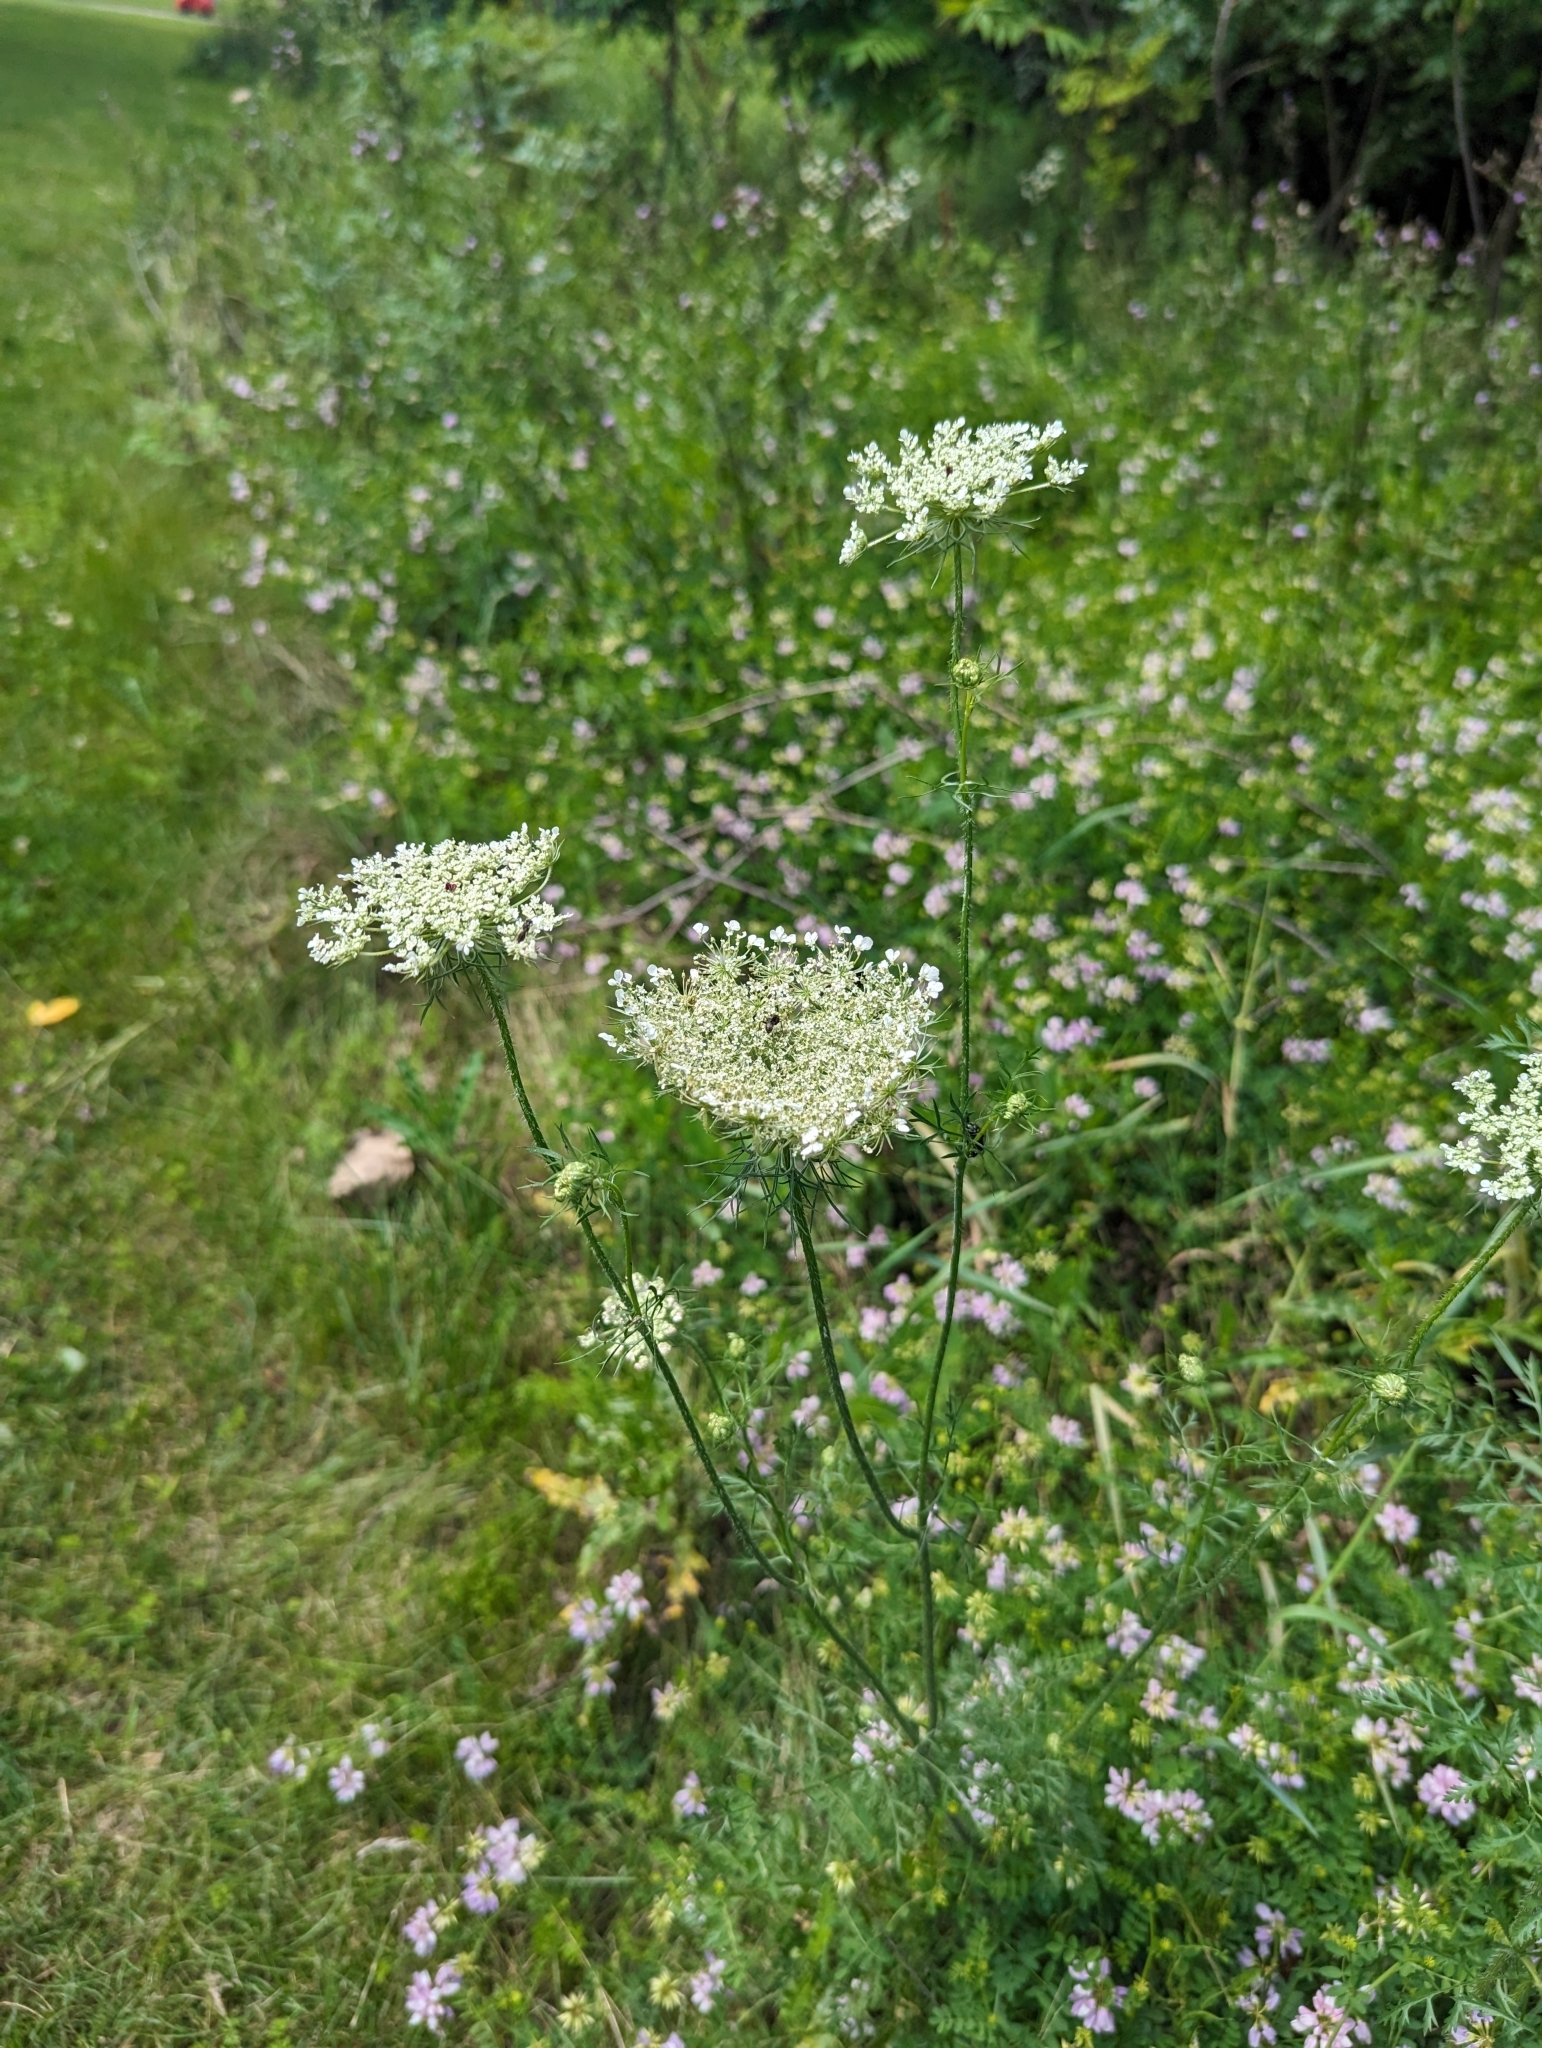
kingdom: Plantae
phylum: Tracheophyta
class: Magnoliopsida
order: Apiales
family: Apiaceae
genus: Daucus
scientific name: Daucus carota
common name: Wild carrot
